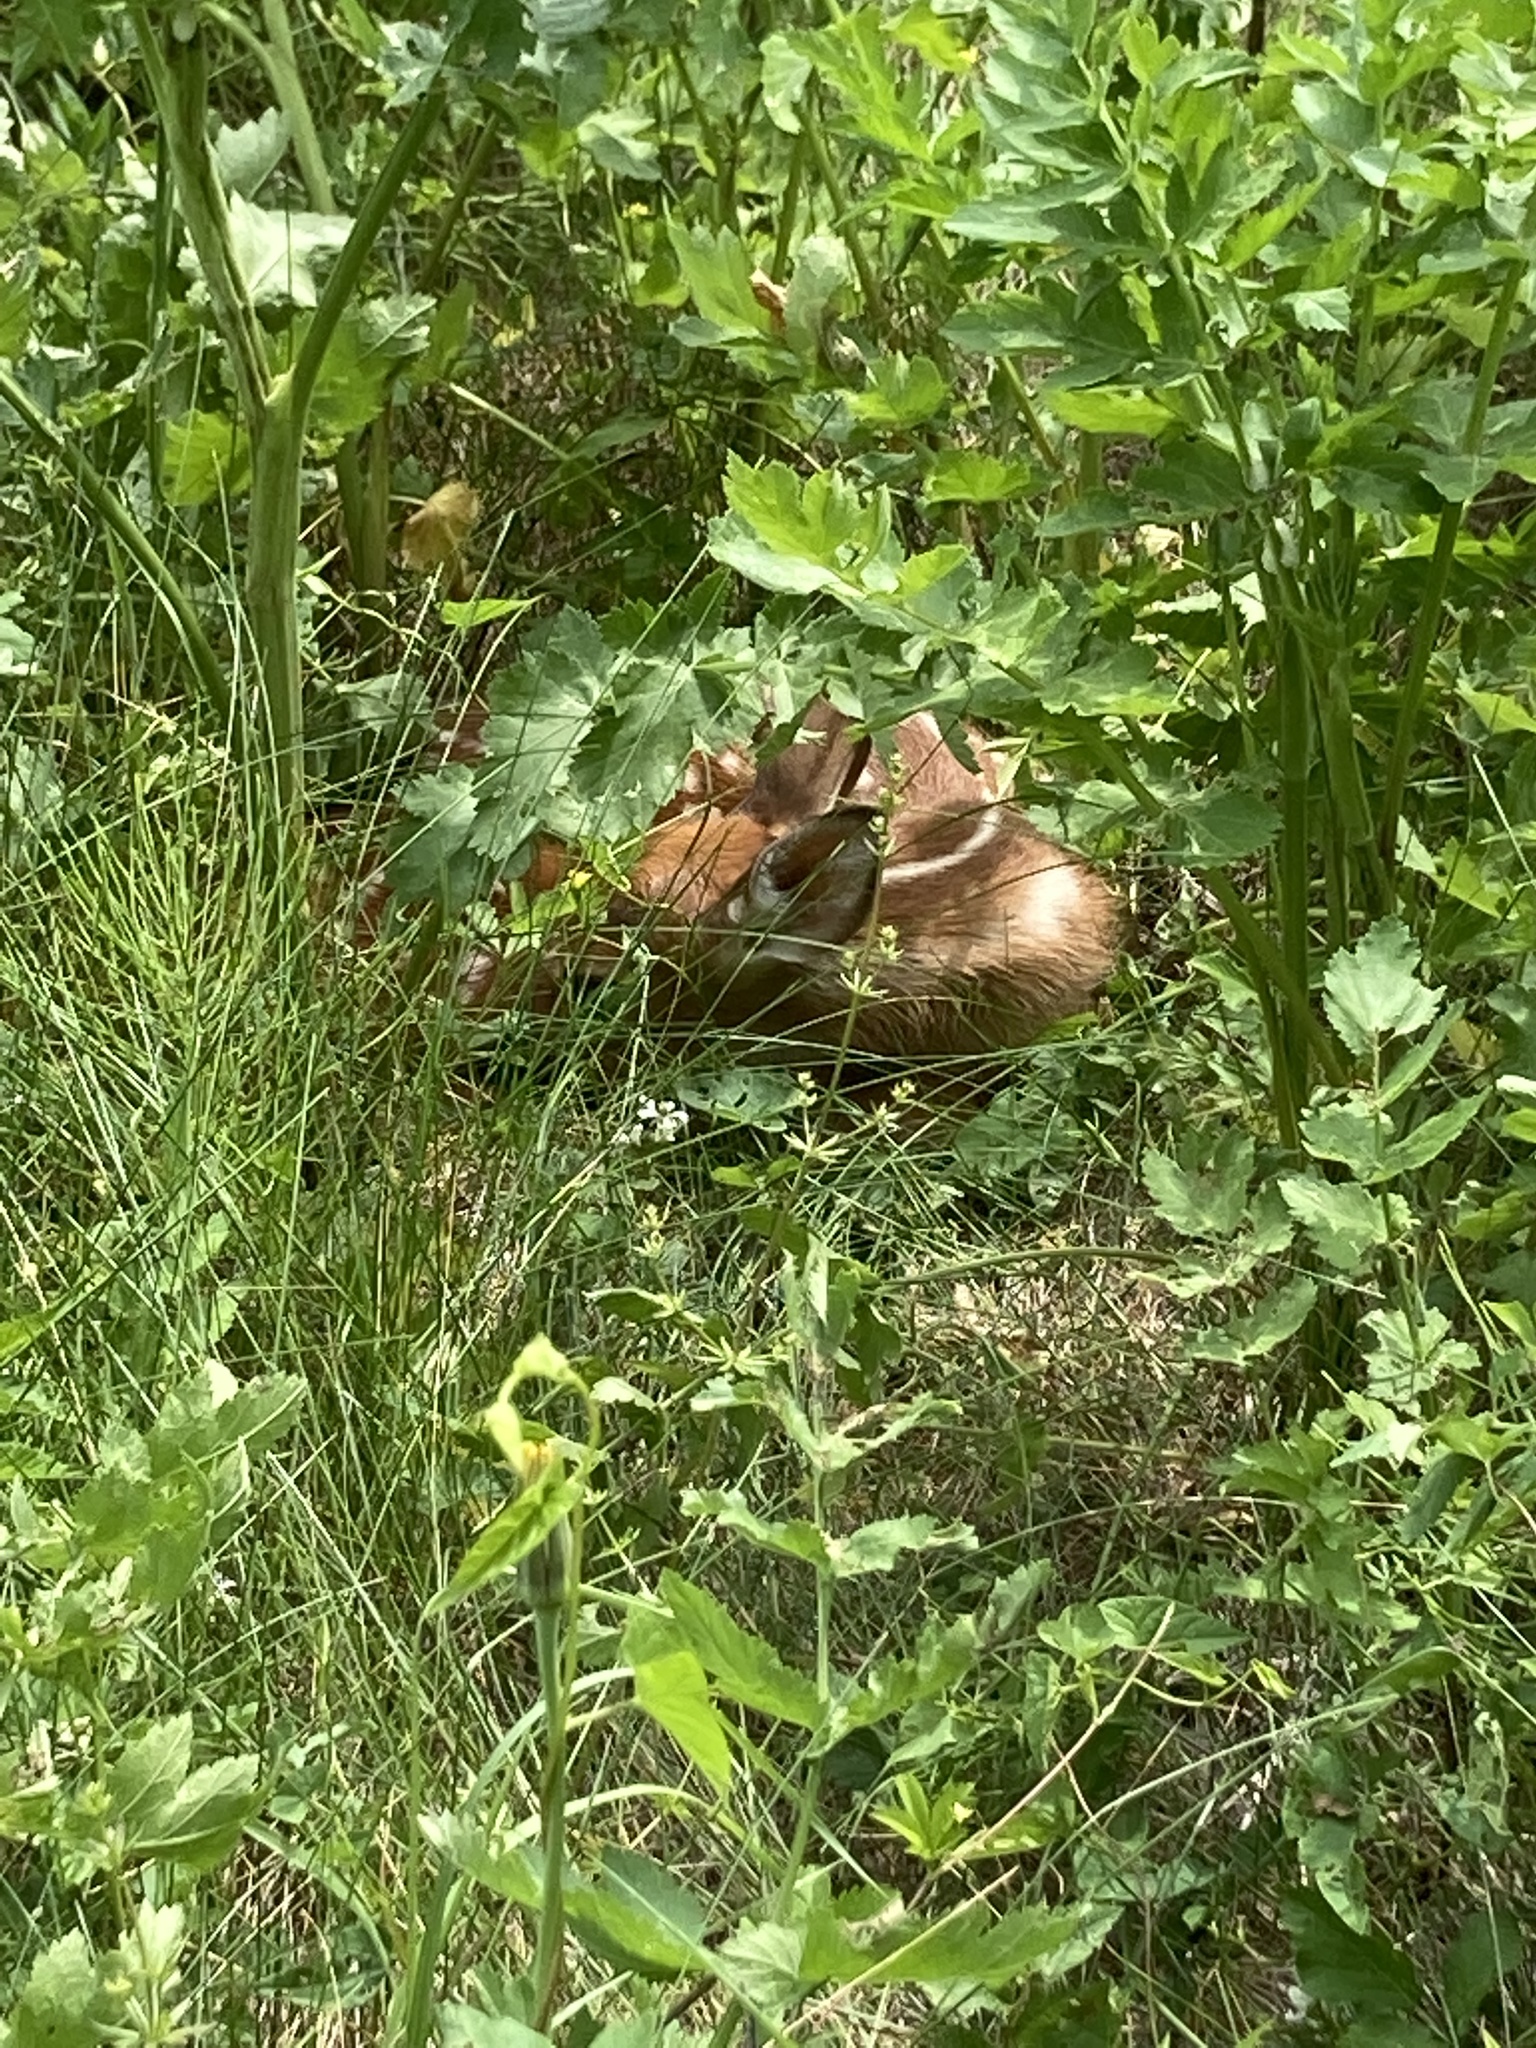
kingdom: Animalia
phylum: Chordata
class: Mammalia
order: Artiodactyla
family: Cervidae
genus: Odocoileus
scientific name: Odocoileus virginianus
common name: White-tailed deer
